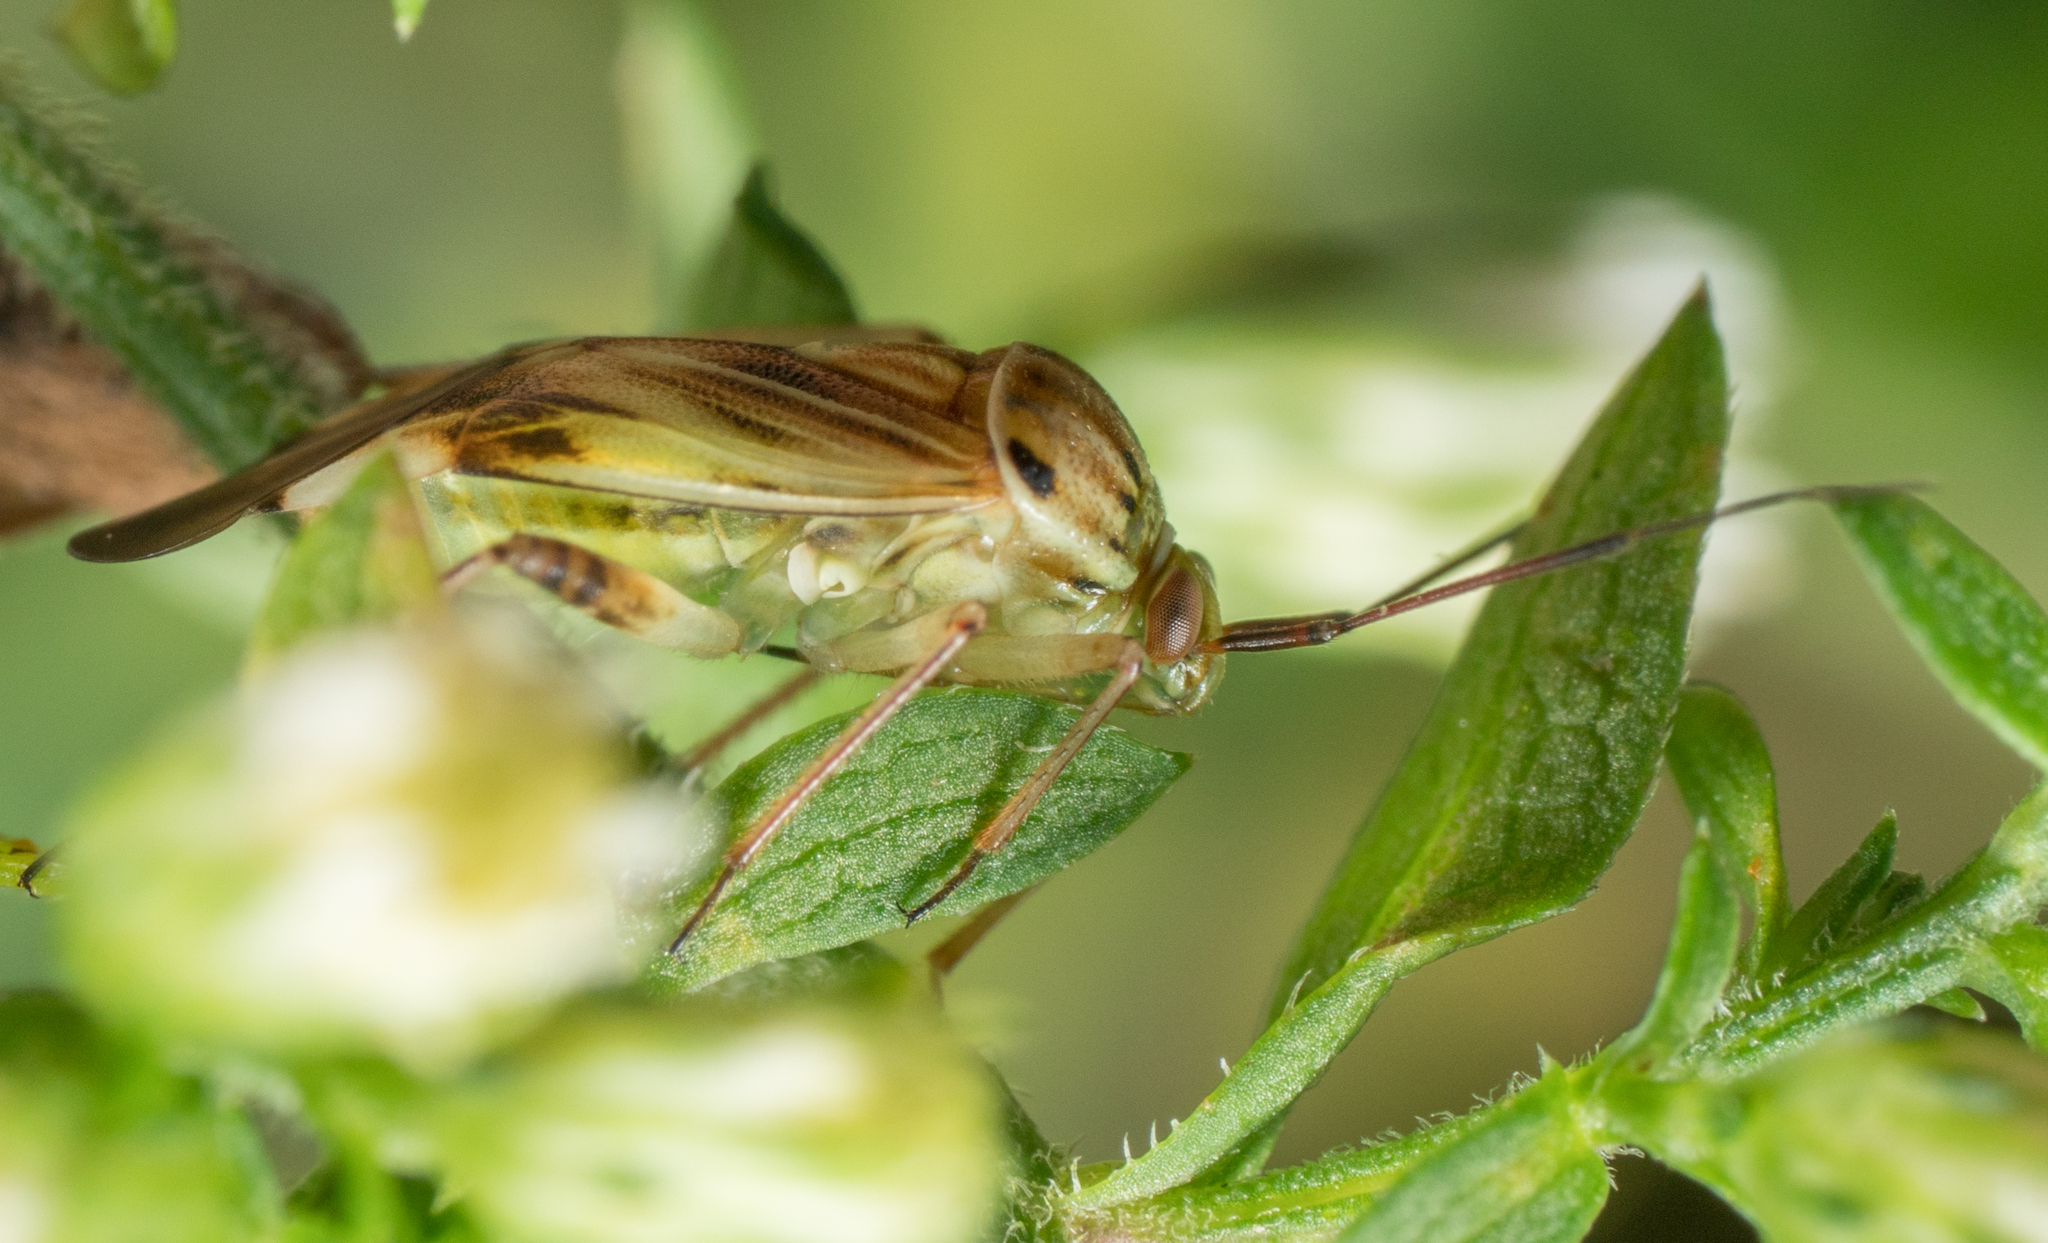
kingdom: Animalia
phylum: Arthropoda
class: Insecta
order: Hemiptera
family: Miridae
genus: Lygus
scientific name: Lygus vanduzeei
